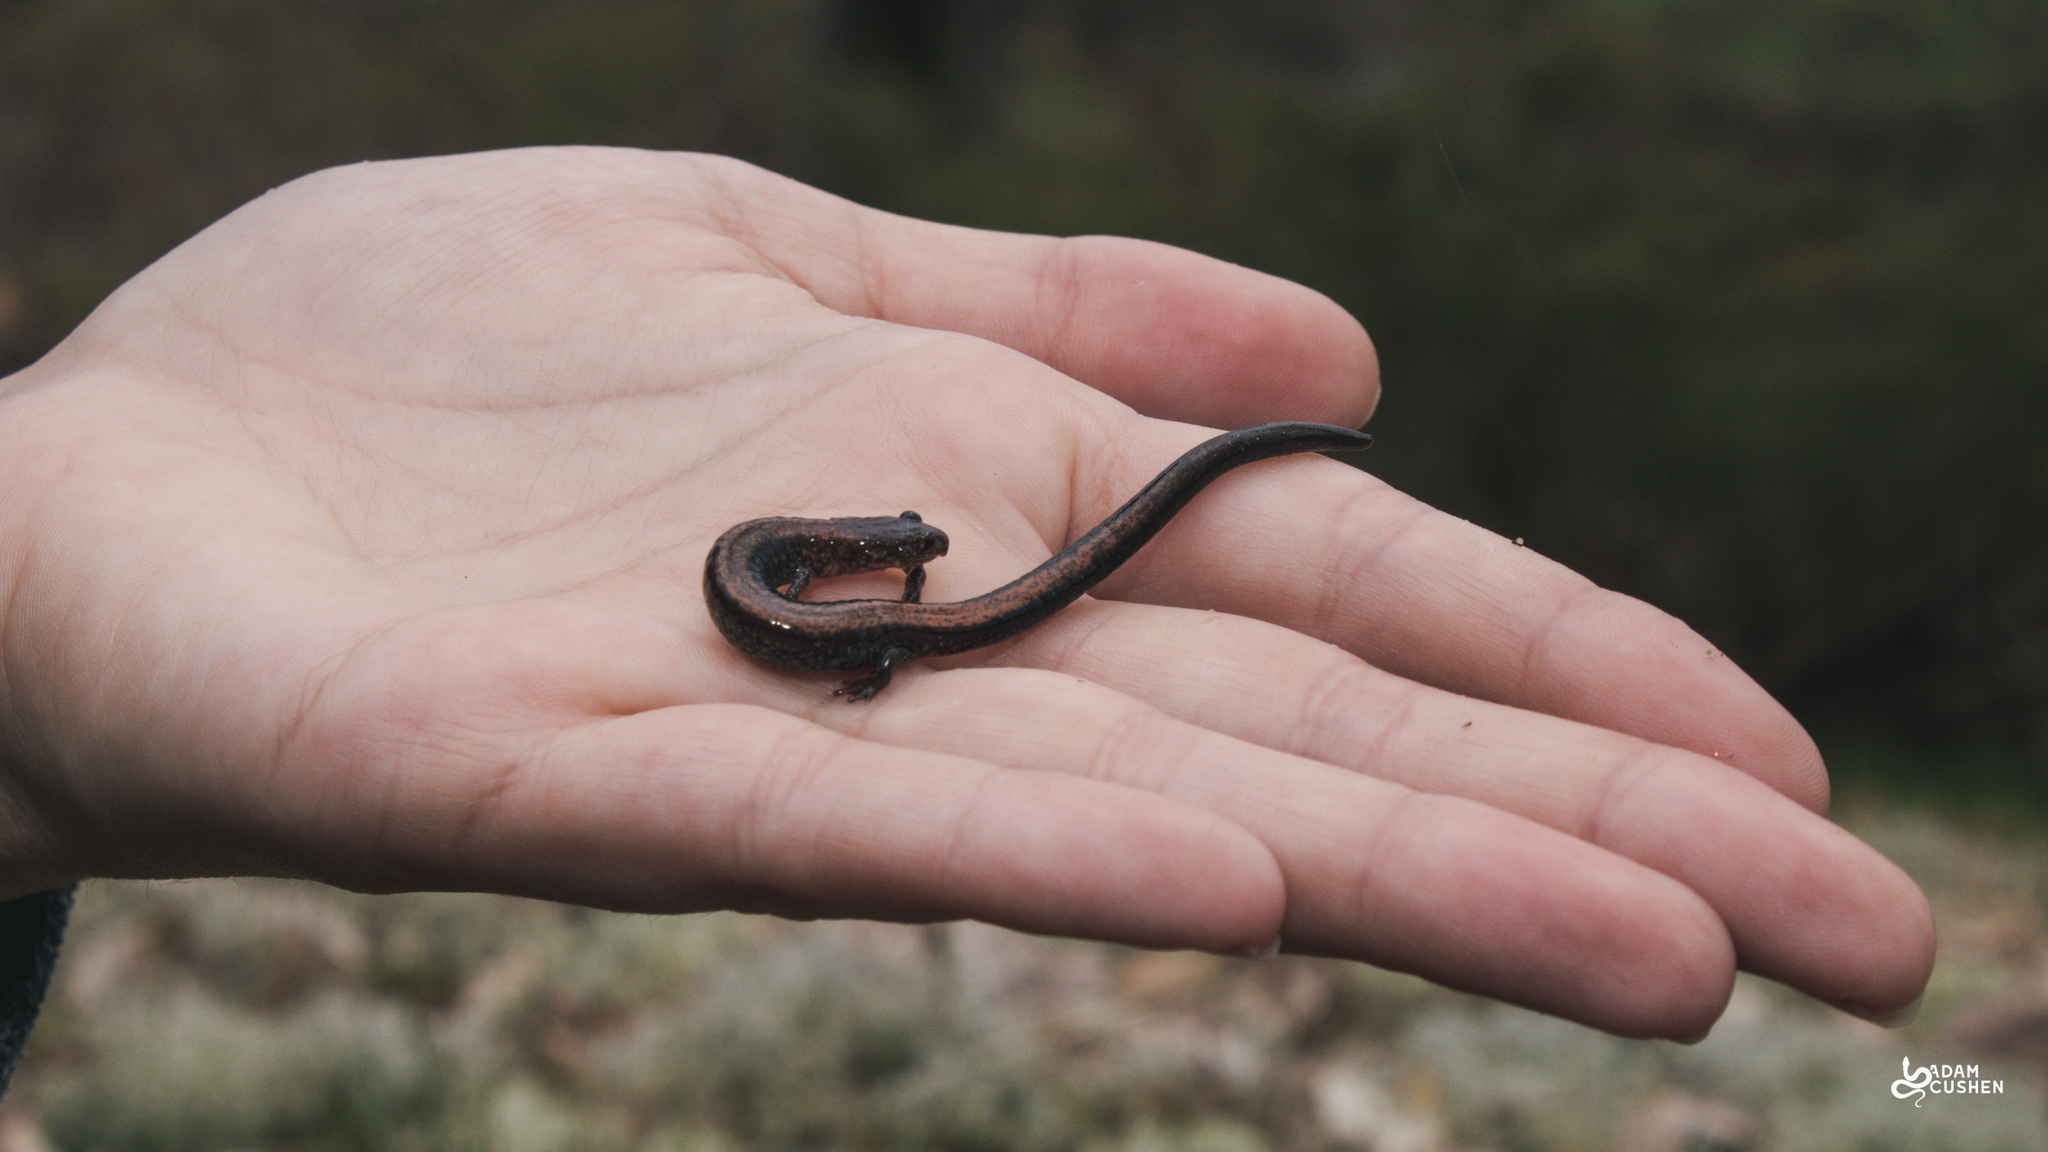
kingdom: Animalia
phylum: Chordata
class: Amphibia
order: Caudata
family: Plethodontidae
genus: Plethodon
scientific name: Plethodon cinereus
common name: Redback salamander
